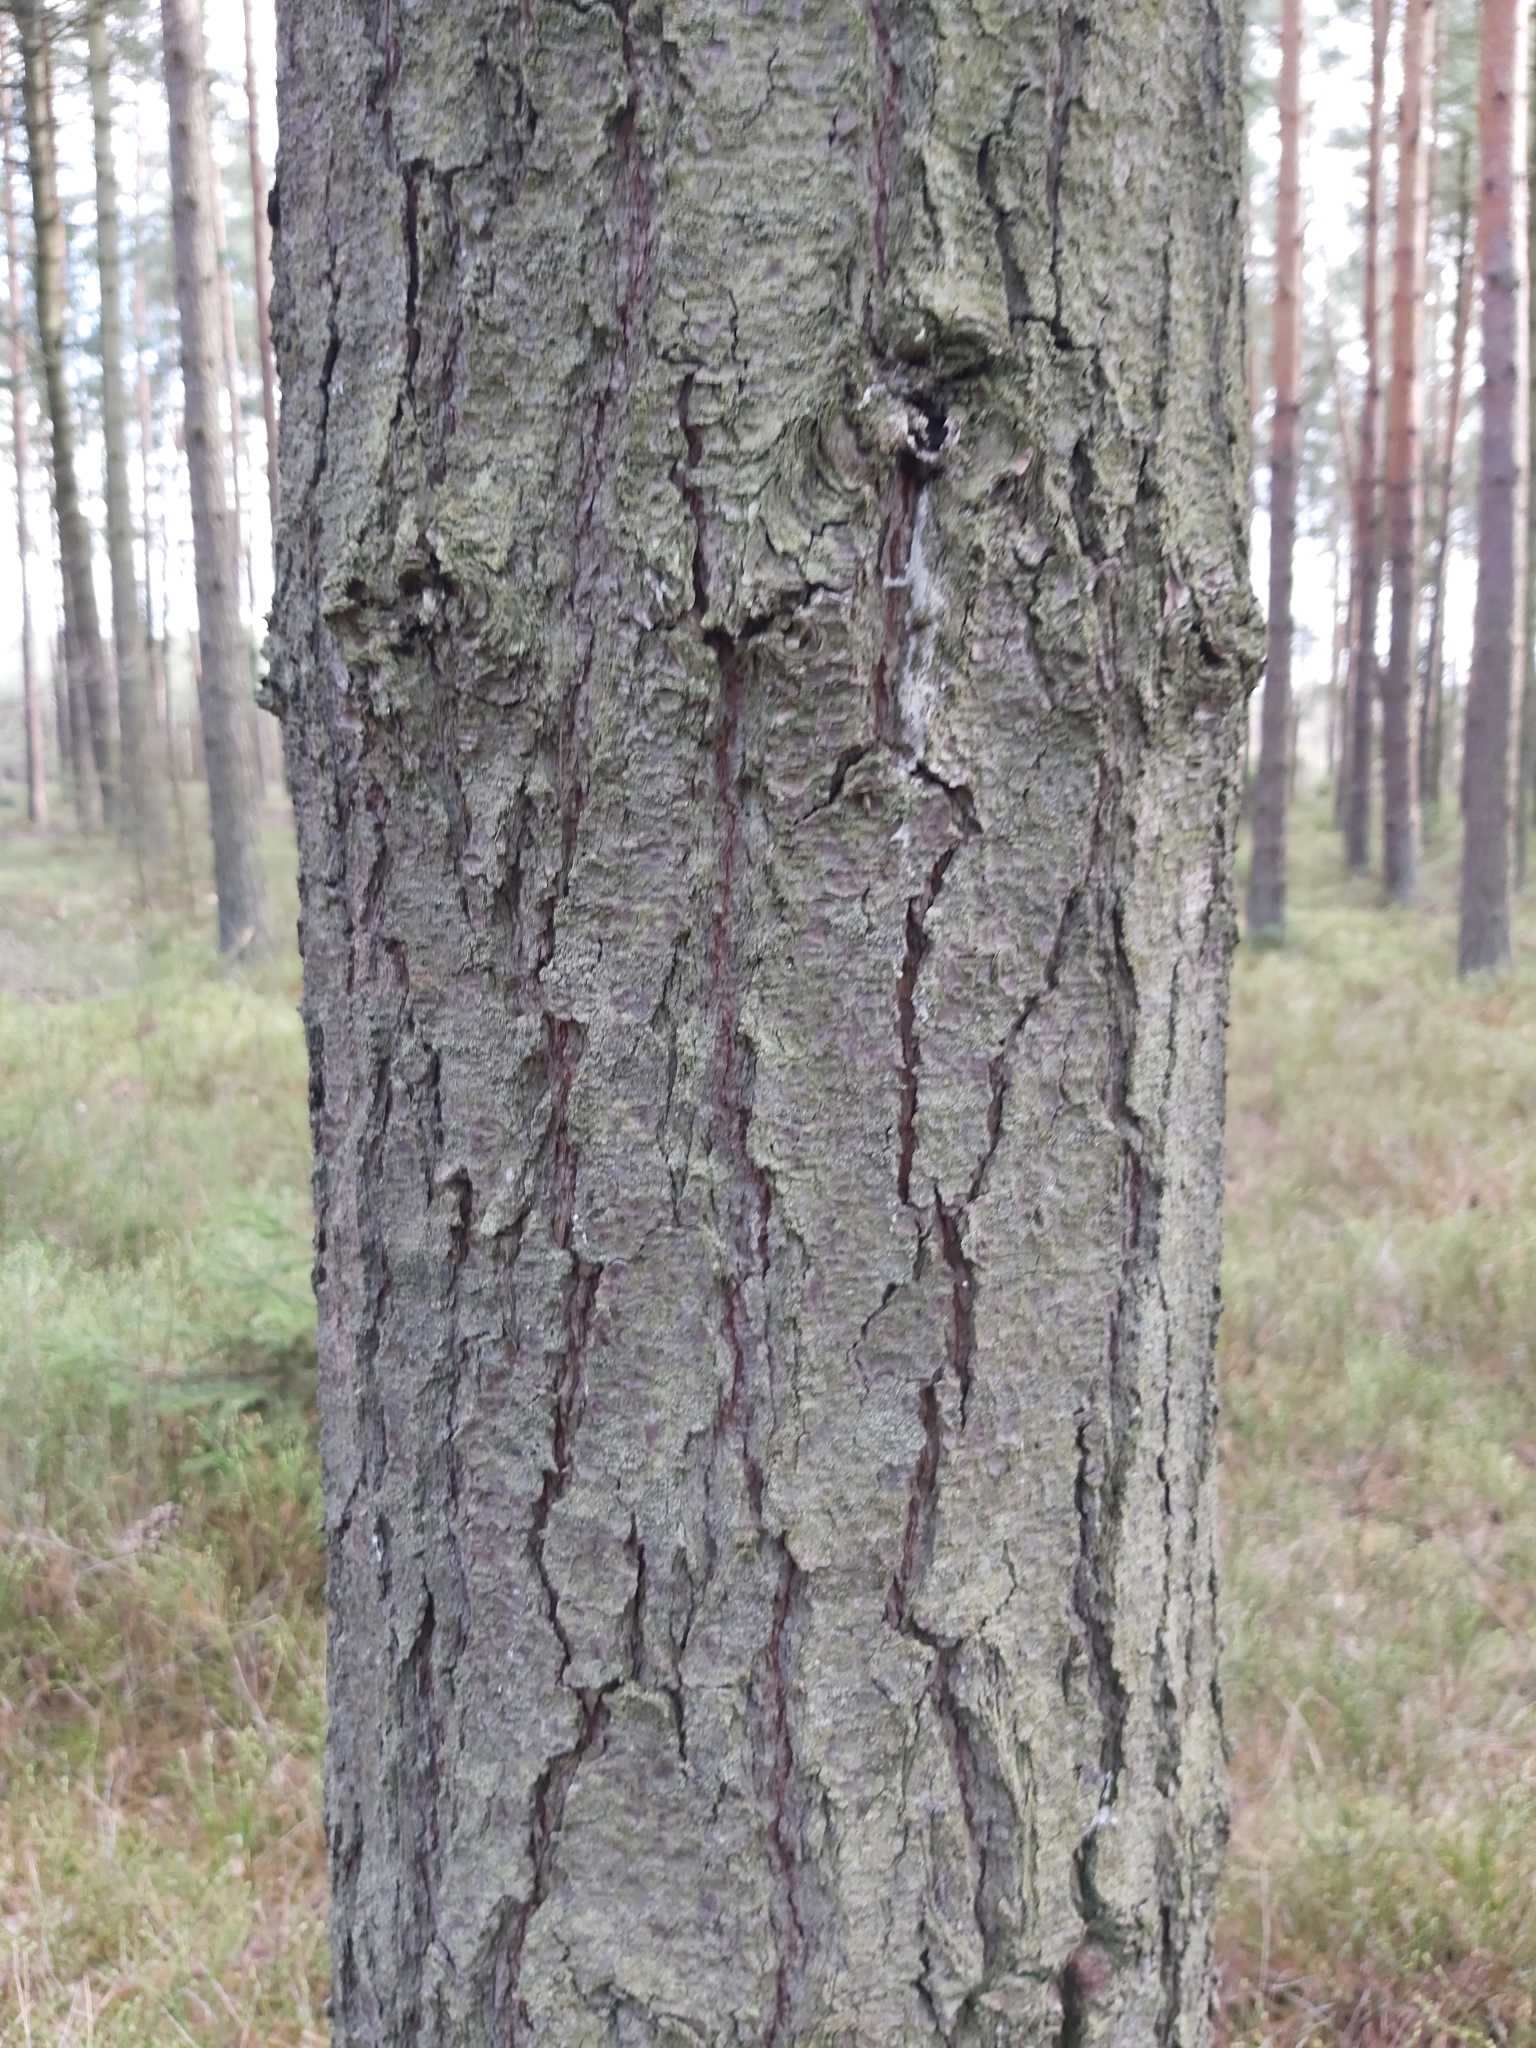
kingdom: Plantae
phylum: Tracheophyta
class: Pinopsida
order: Pinales
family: Pinaceae
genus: Pinus
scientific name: Pinus strobus
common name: Weymouth pine
